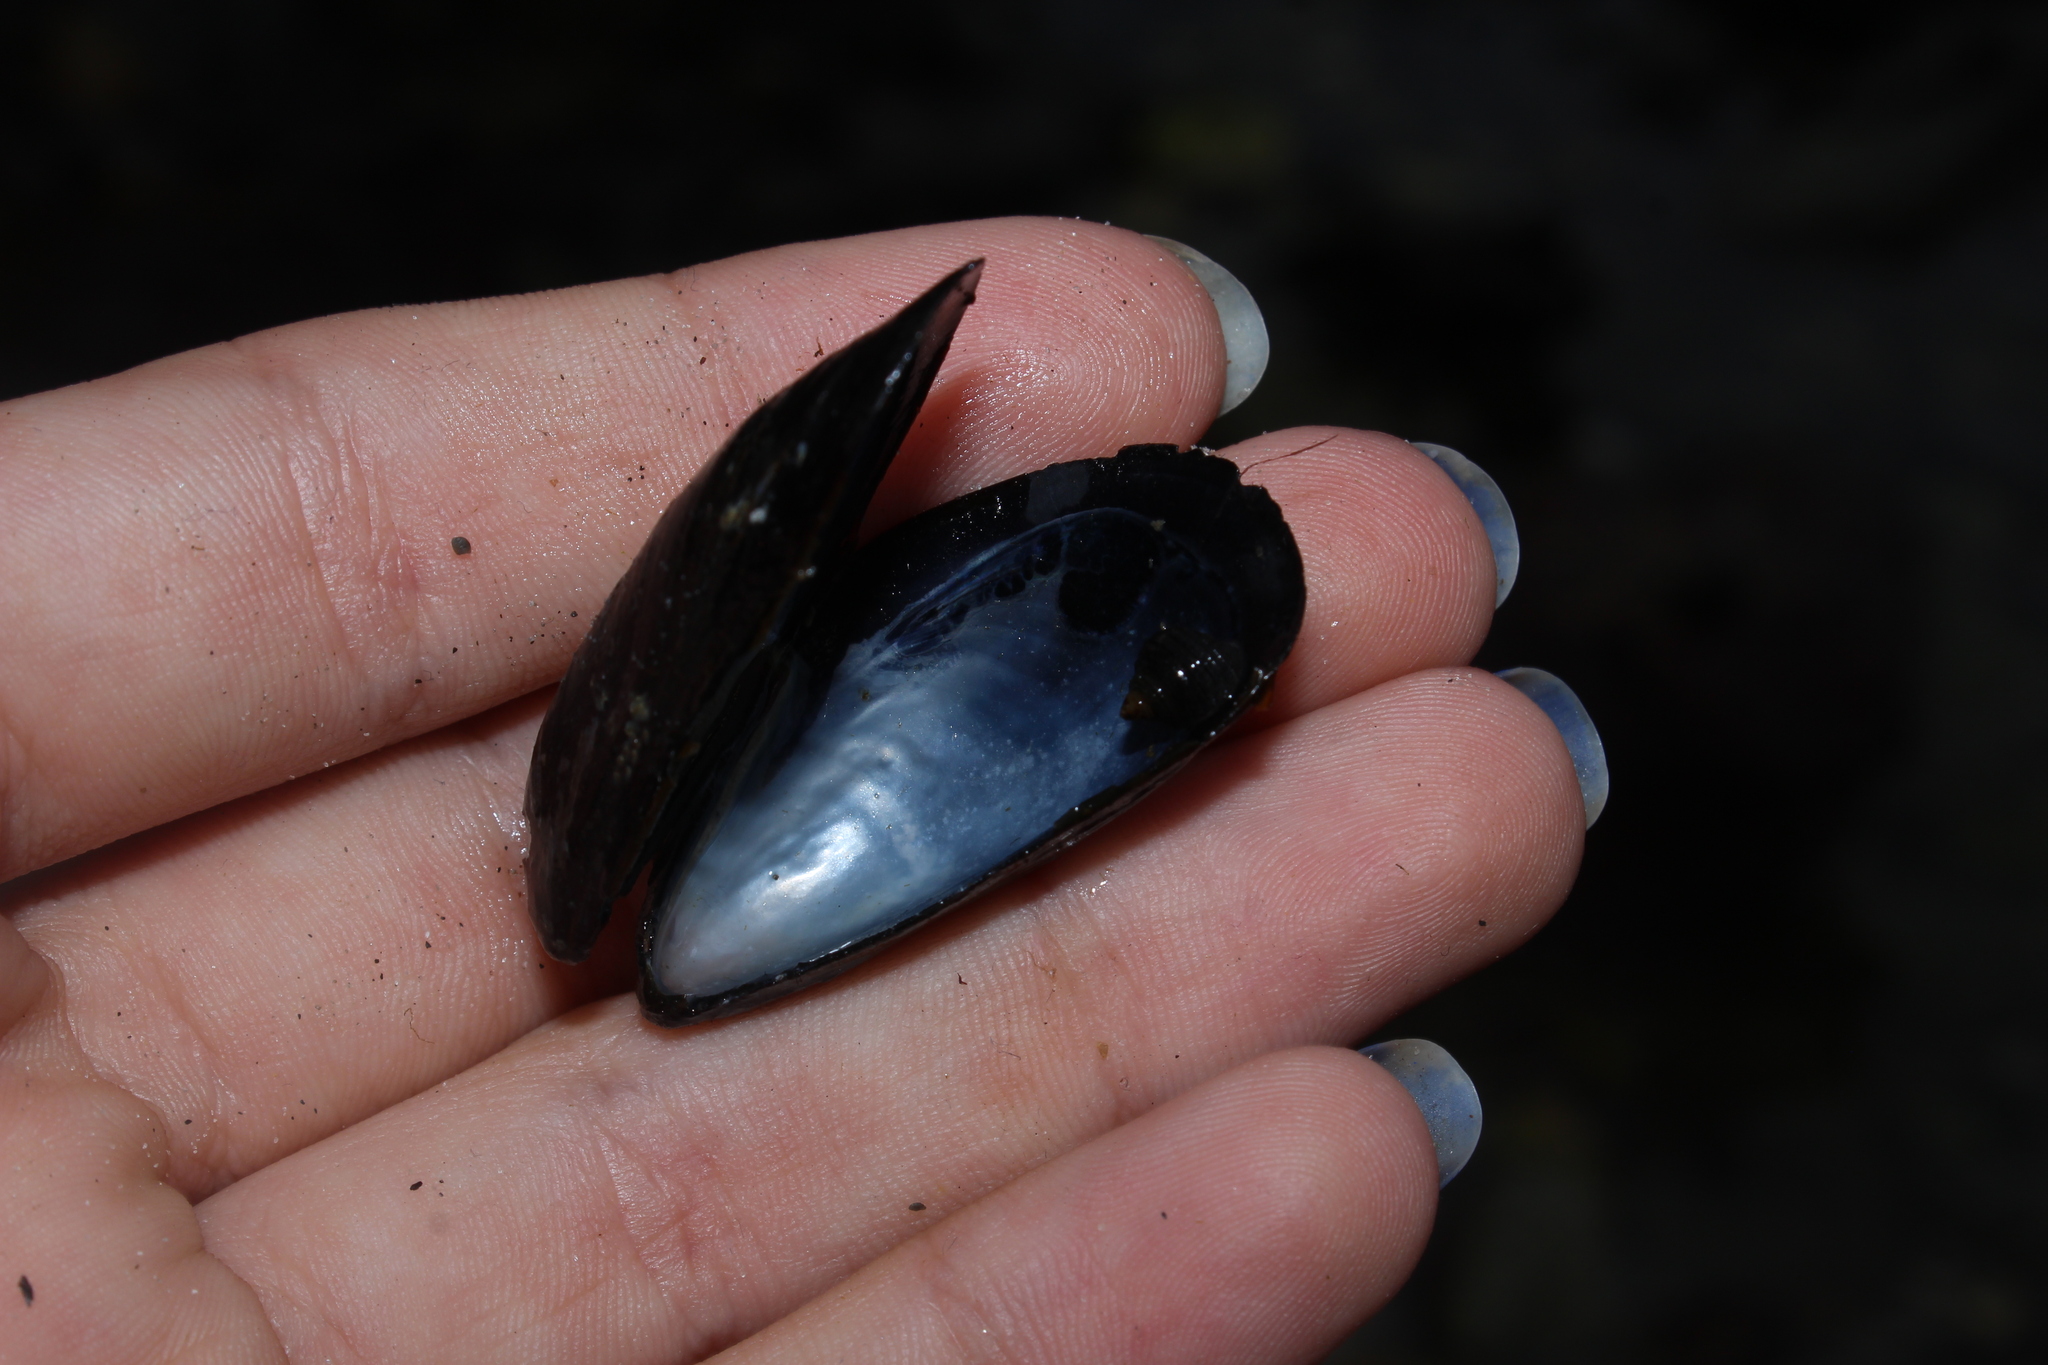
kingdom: Animalia
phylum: Mollusca
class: Bivalvia
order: Mytilida
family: Mytilidae
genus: Mytilus
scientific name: Mytilus edulis
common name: Blue mussel
